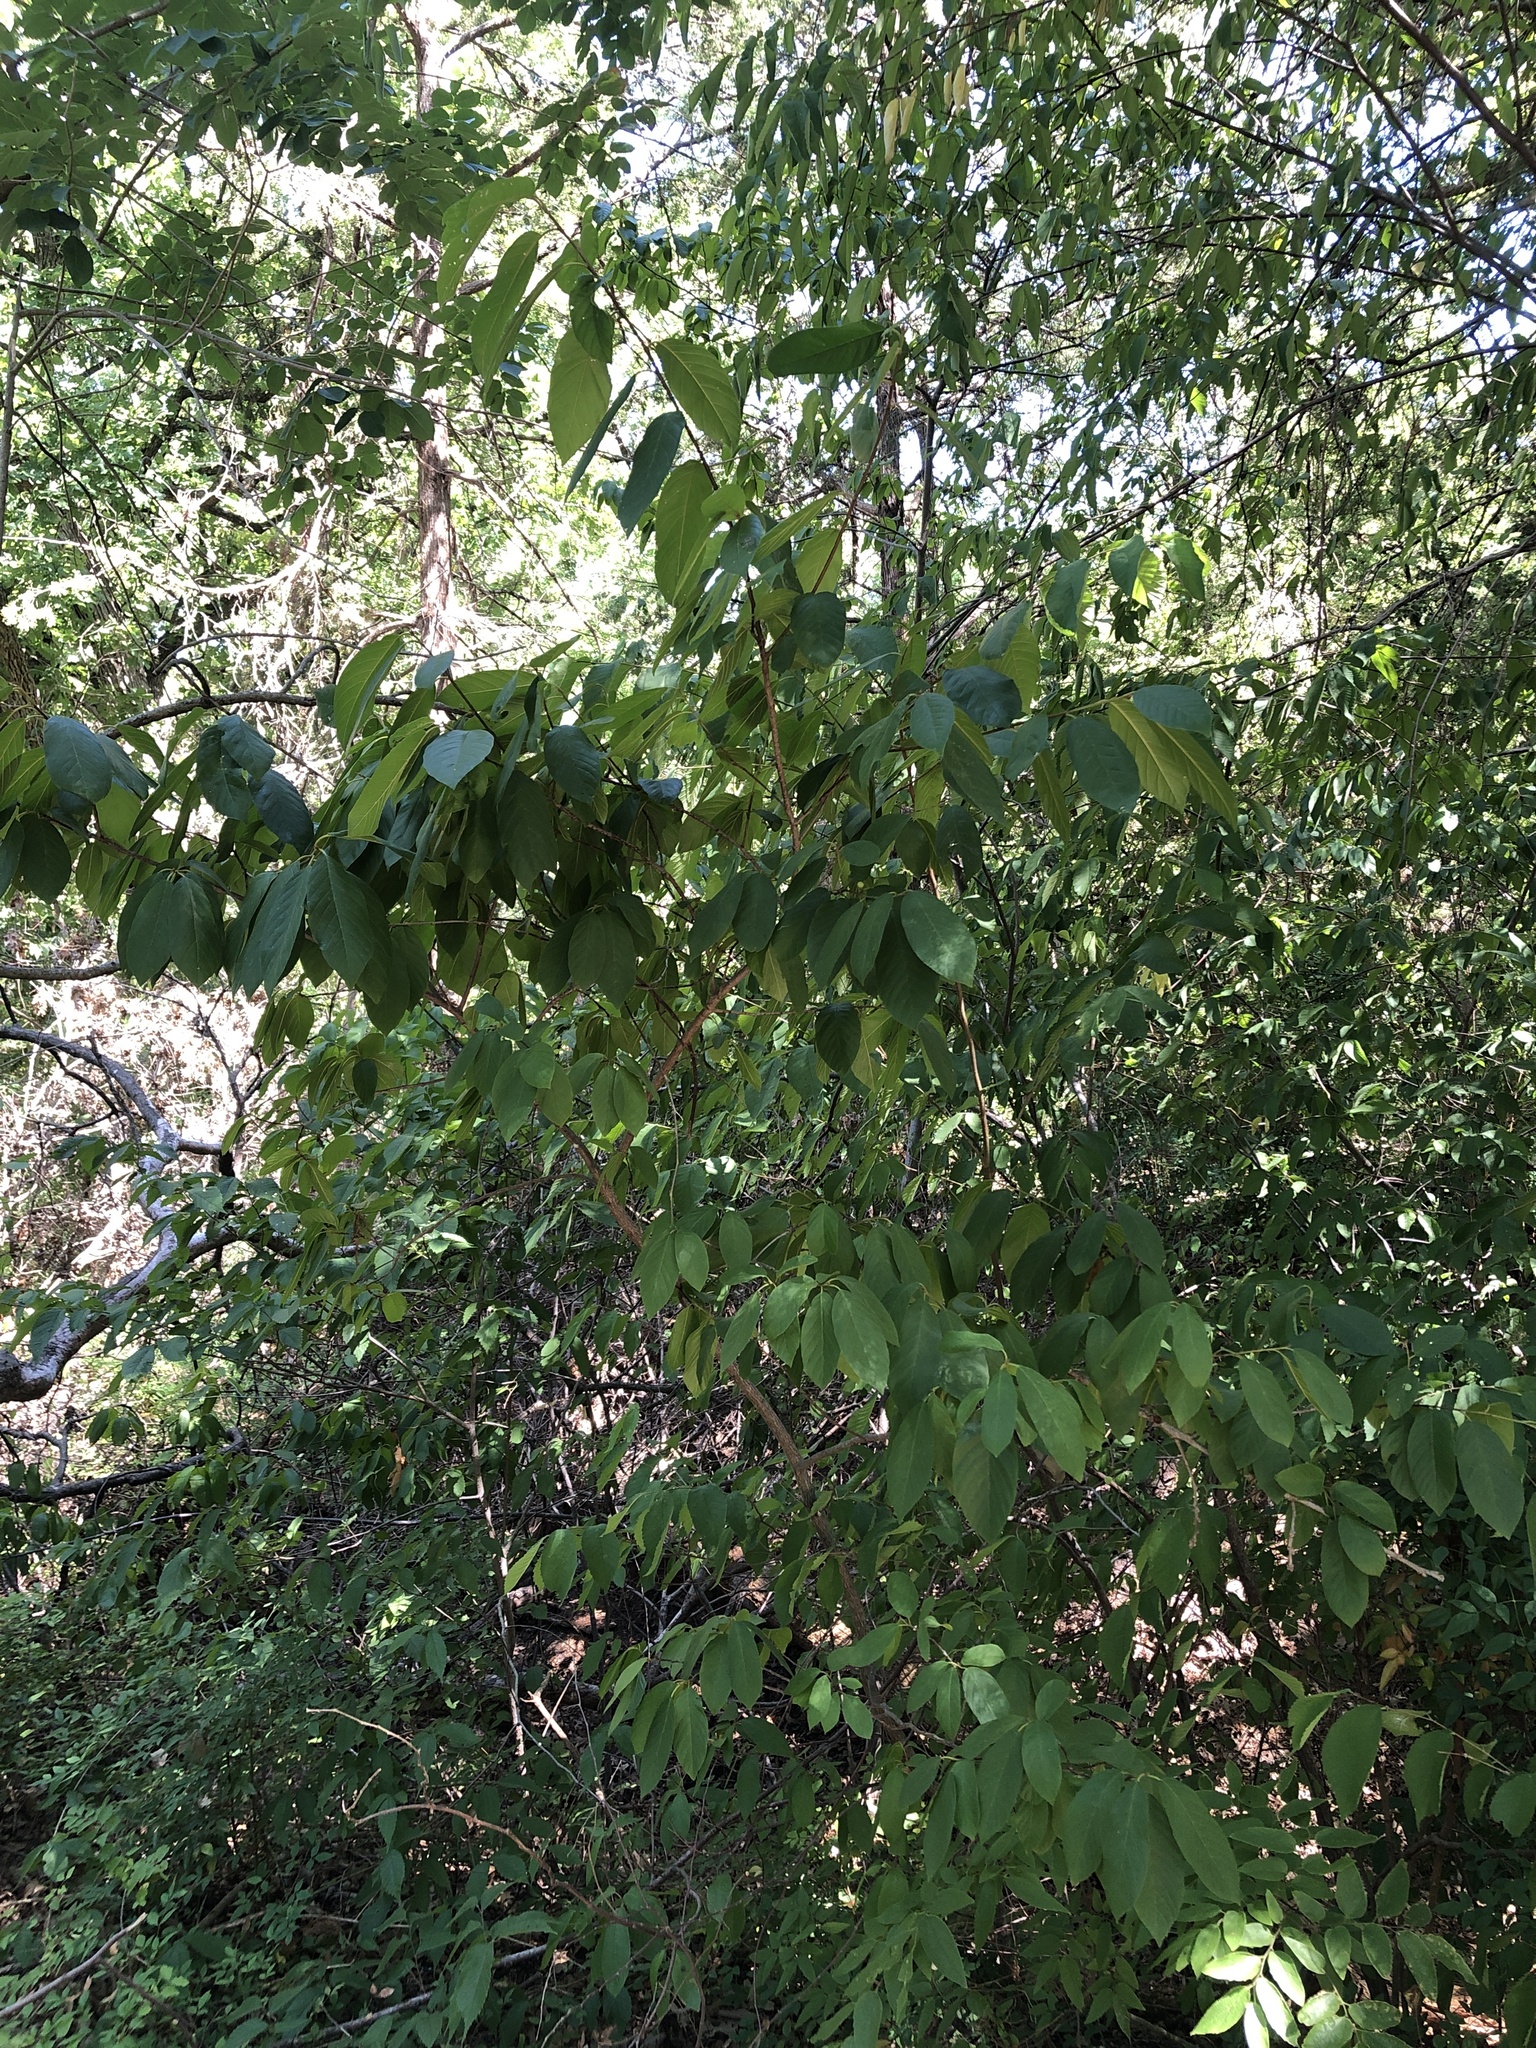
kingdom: Plantae
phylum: Tracheophyta
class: Magnoliopsida
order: Rosales
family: Rhamnaceae
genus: Frangula
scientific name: Frangula caroliniana
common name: Carolina buckthorn
